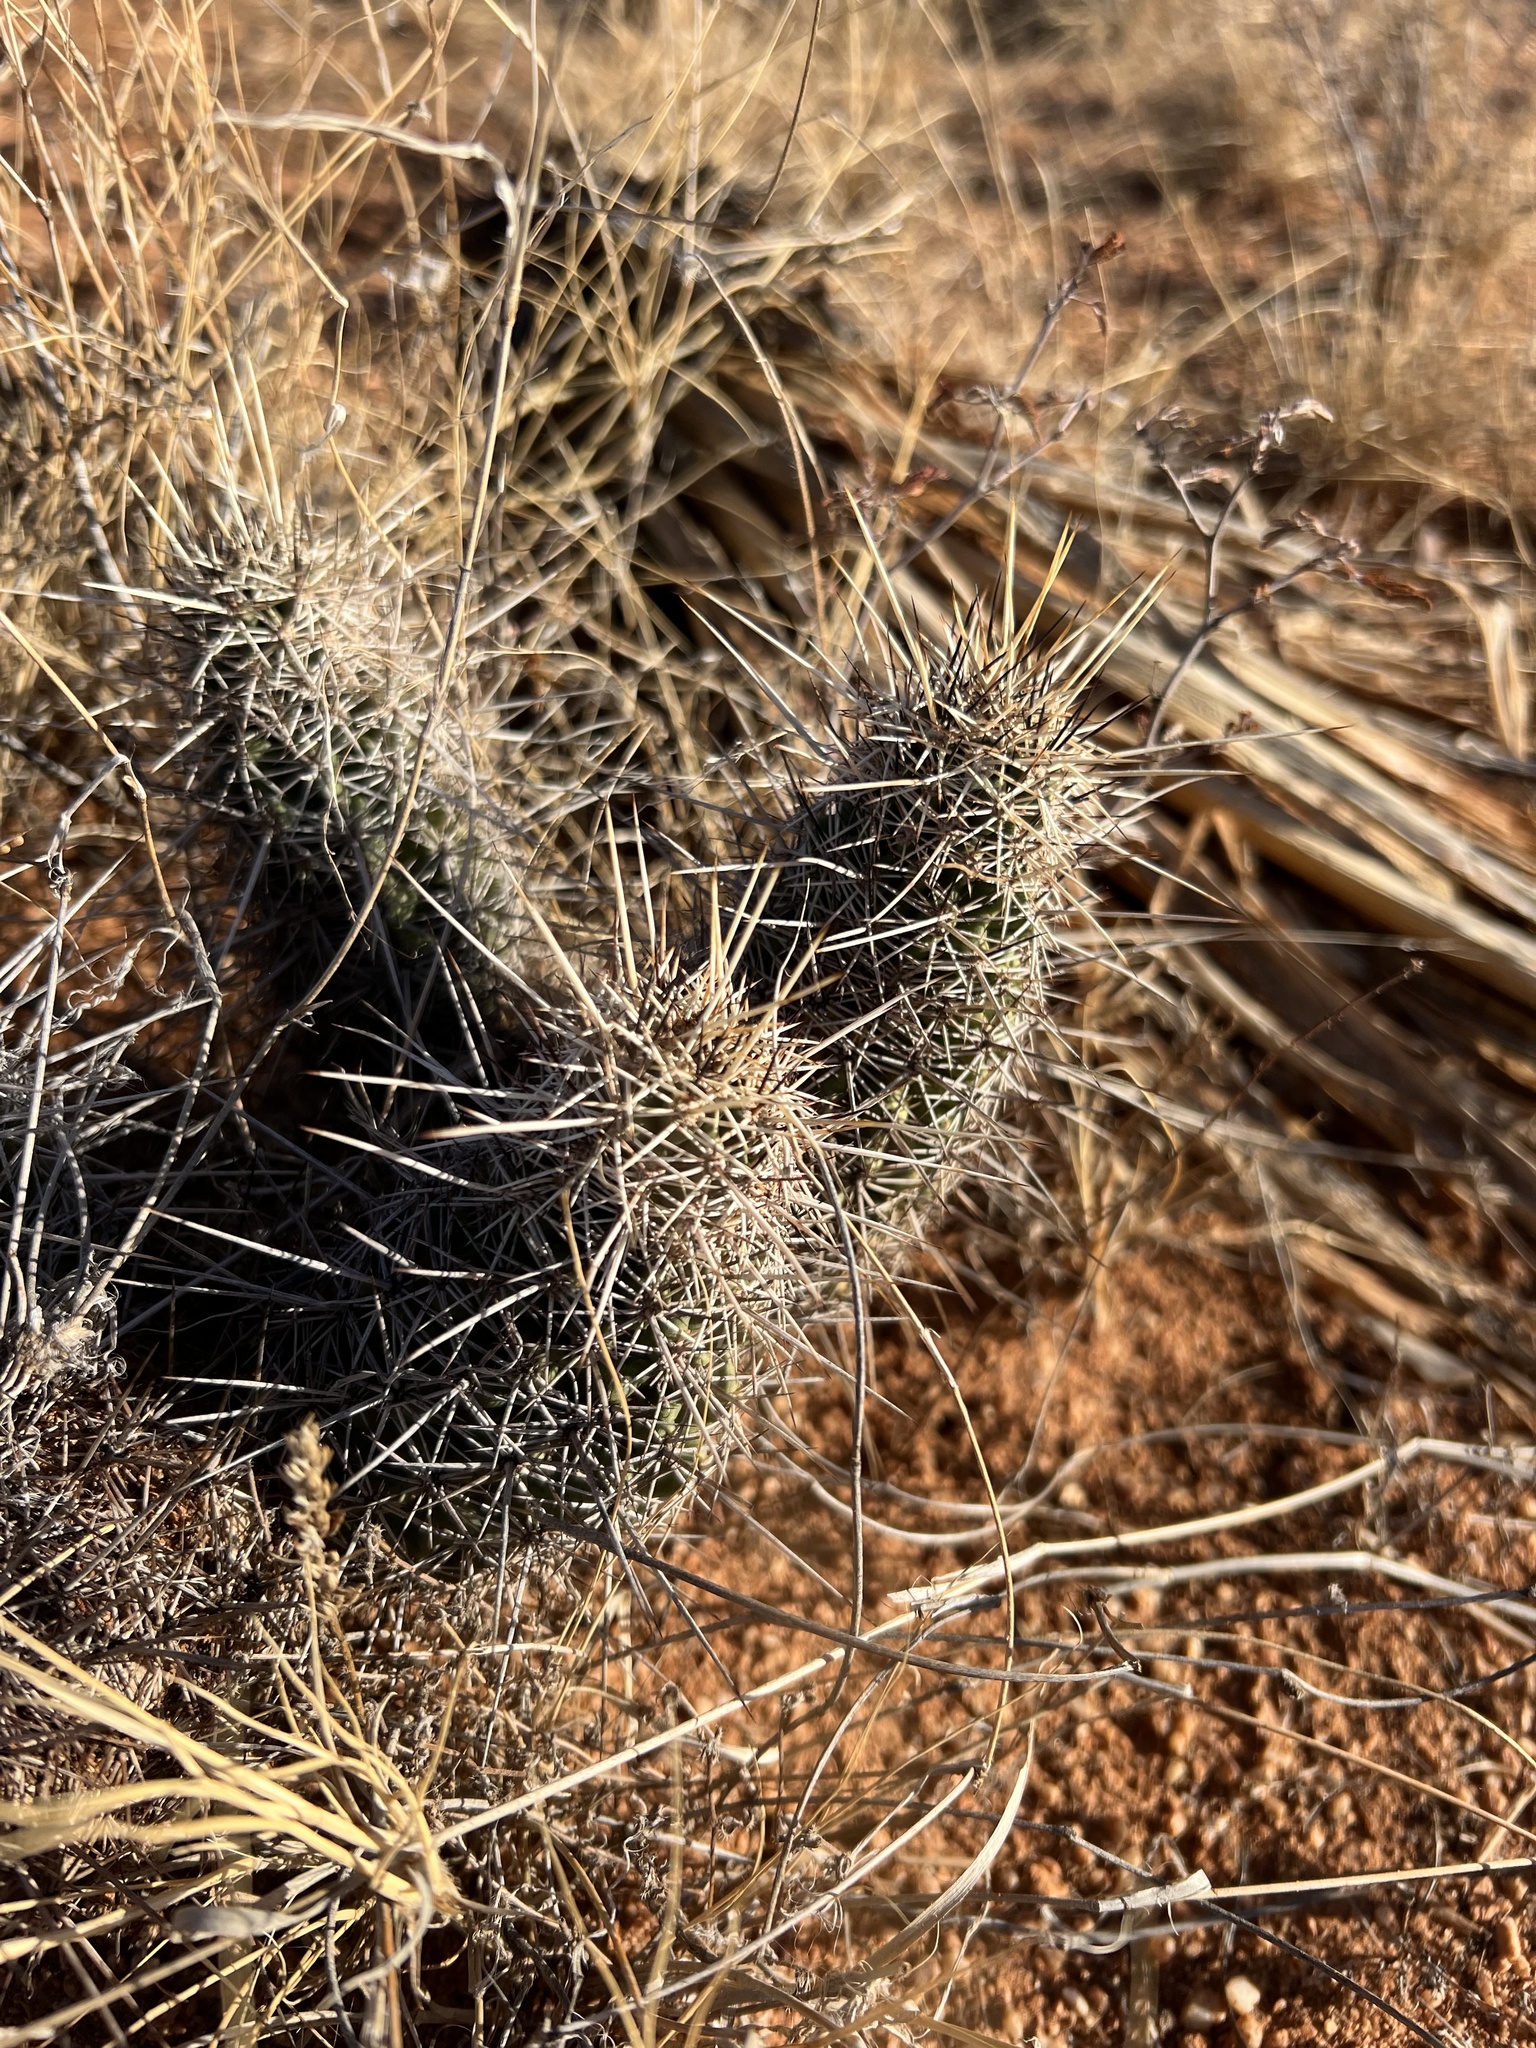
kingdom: Plantae
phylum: Tracheophyta
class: Magnoliopsida
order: Caryophyllales
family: Cactaceae
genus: Echinocereus
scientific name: Echinocereus fendleri
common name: Fendler's hedgehog cactus
